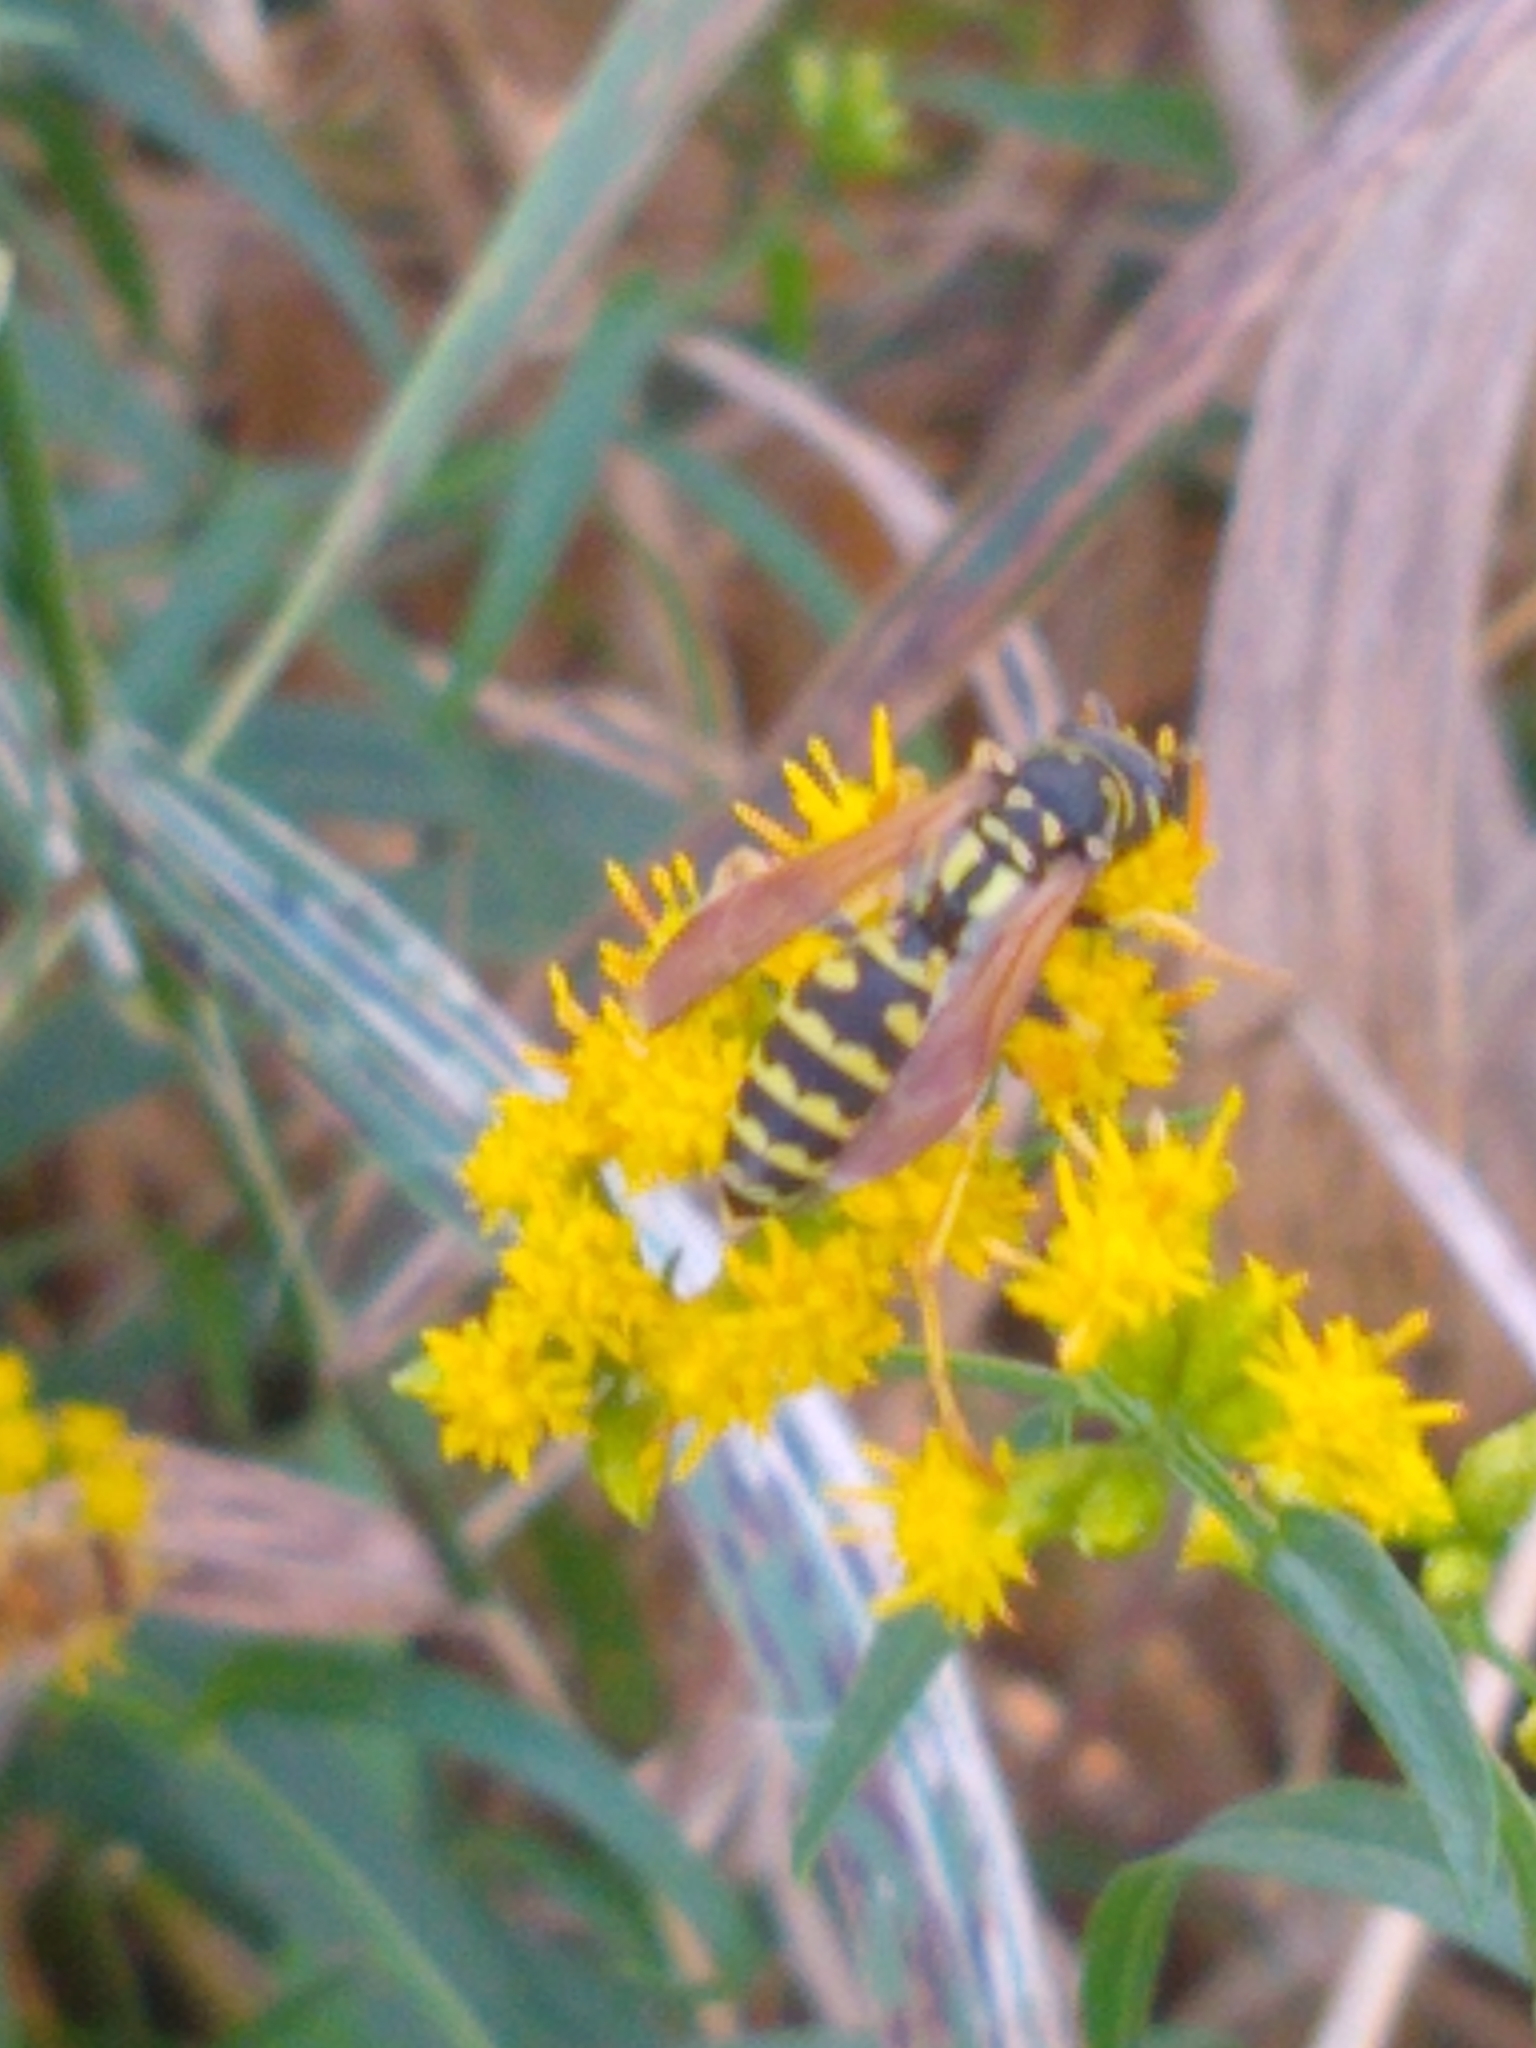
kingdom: Animalia
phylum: Arthropoda
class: Insecta
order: Hymenoptera
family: Eumenidae
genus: Polistes
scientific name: Polistes dominula
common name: Paper wasp
